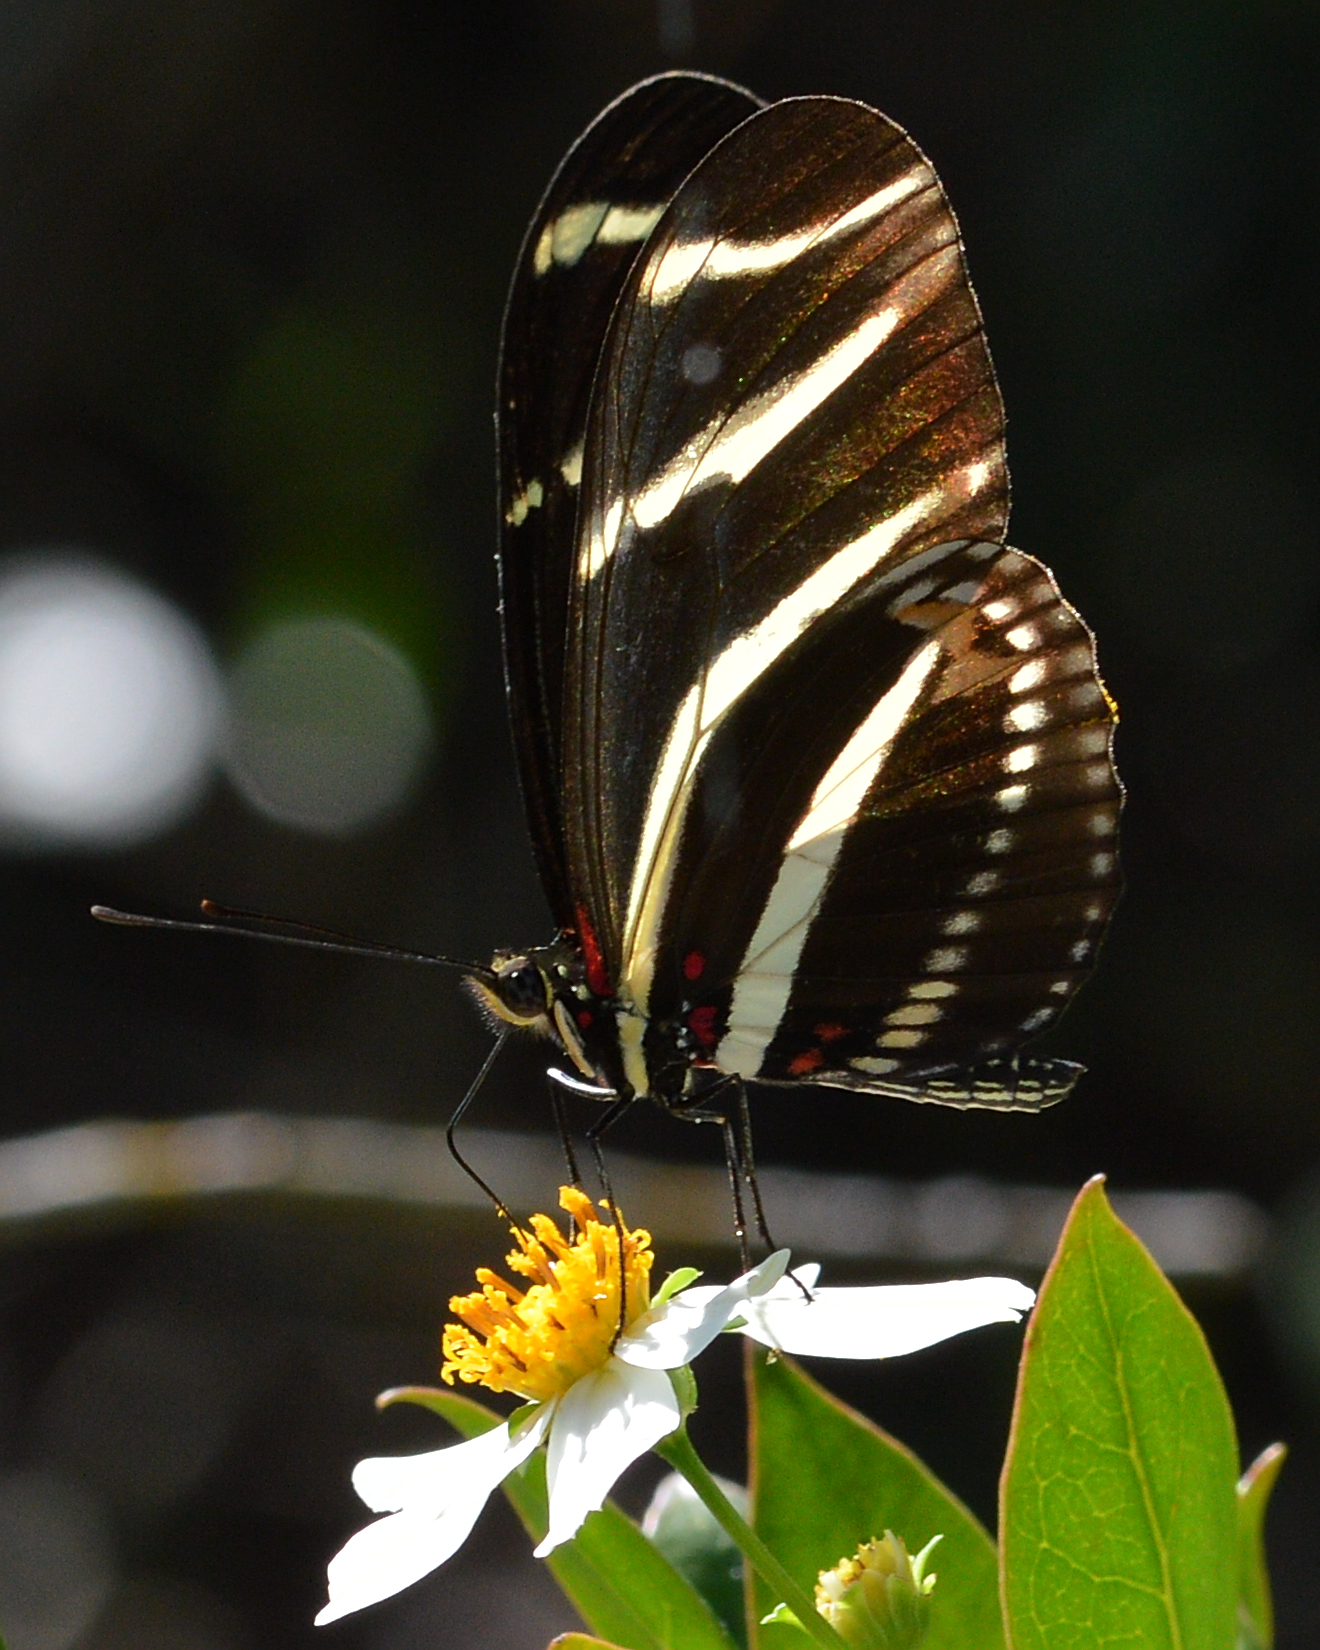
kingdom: Animalia
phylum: Arthropoda
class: Insecta
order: Lepidoptera
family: Nymphalidae
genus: Heliconius
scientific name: Heliconius charithonia
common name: Zebra long wing
